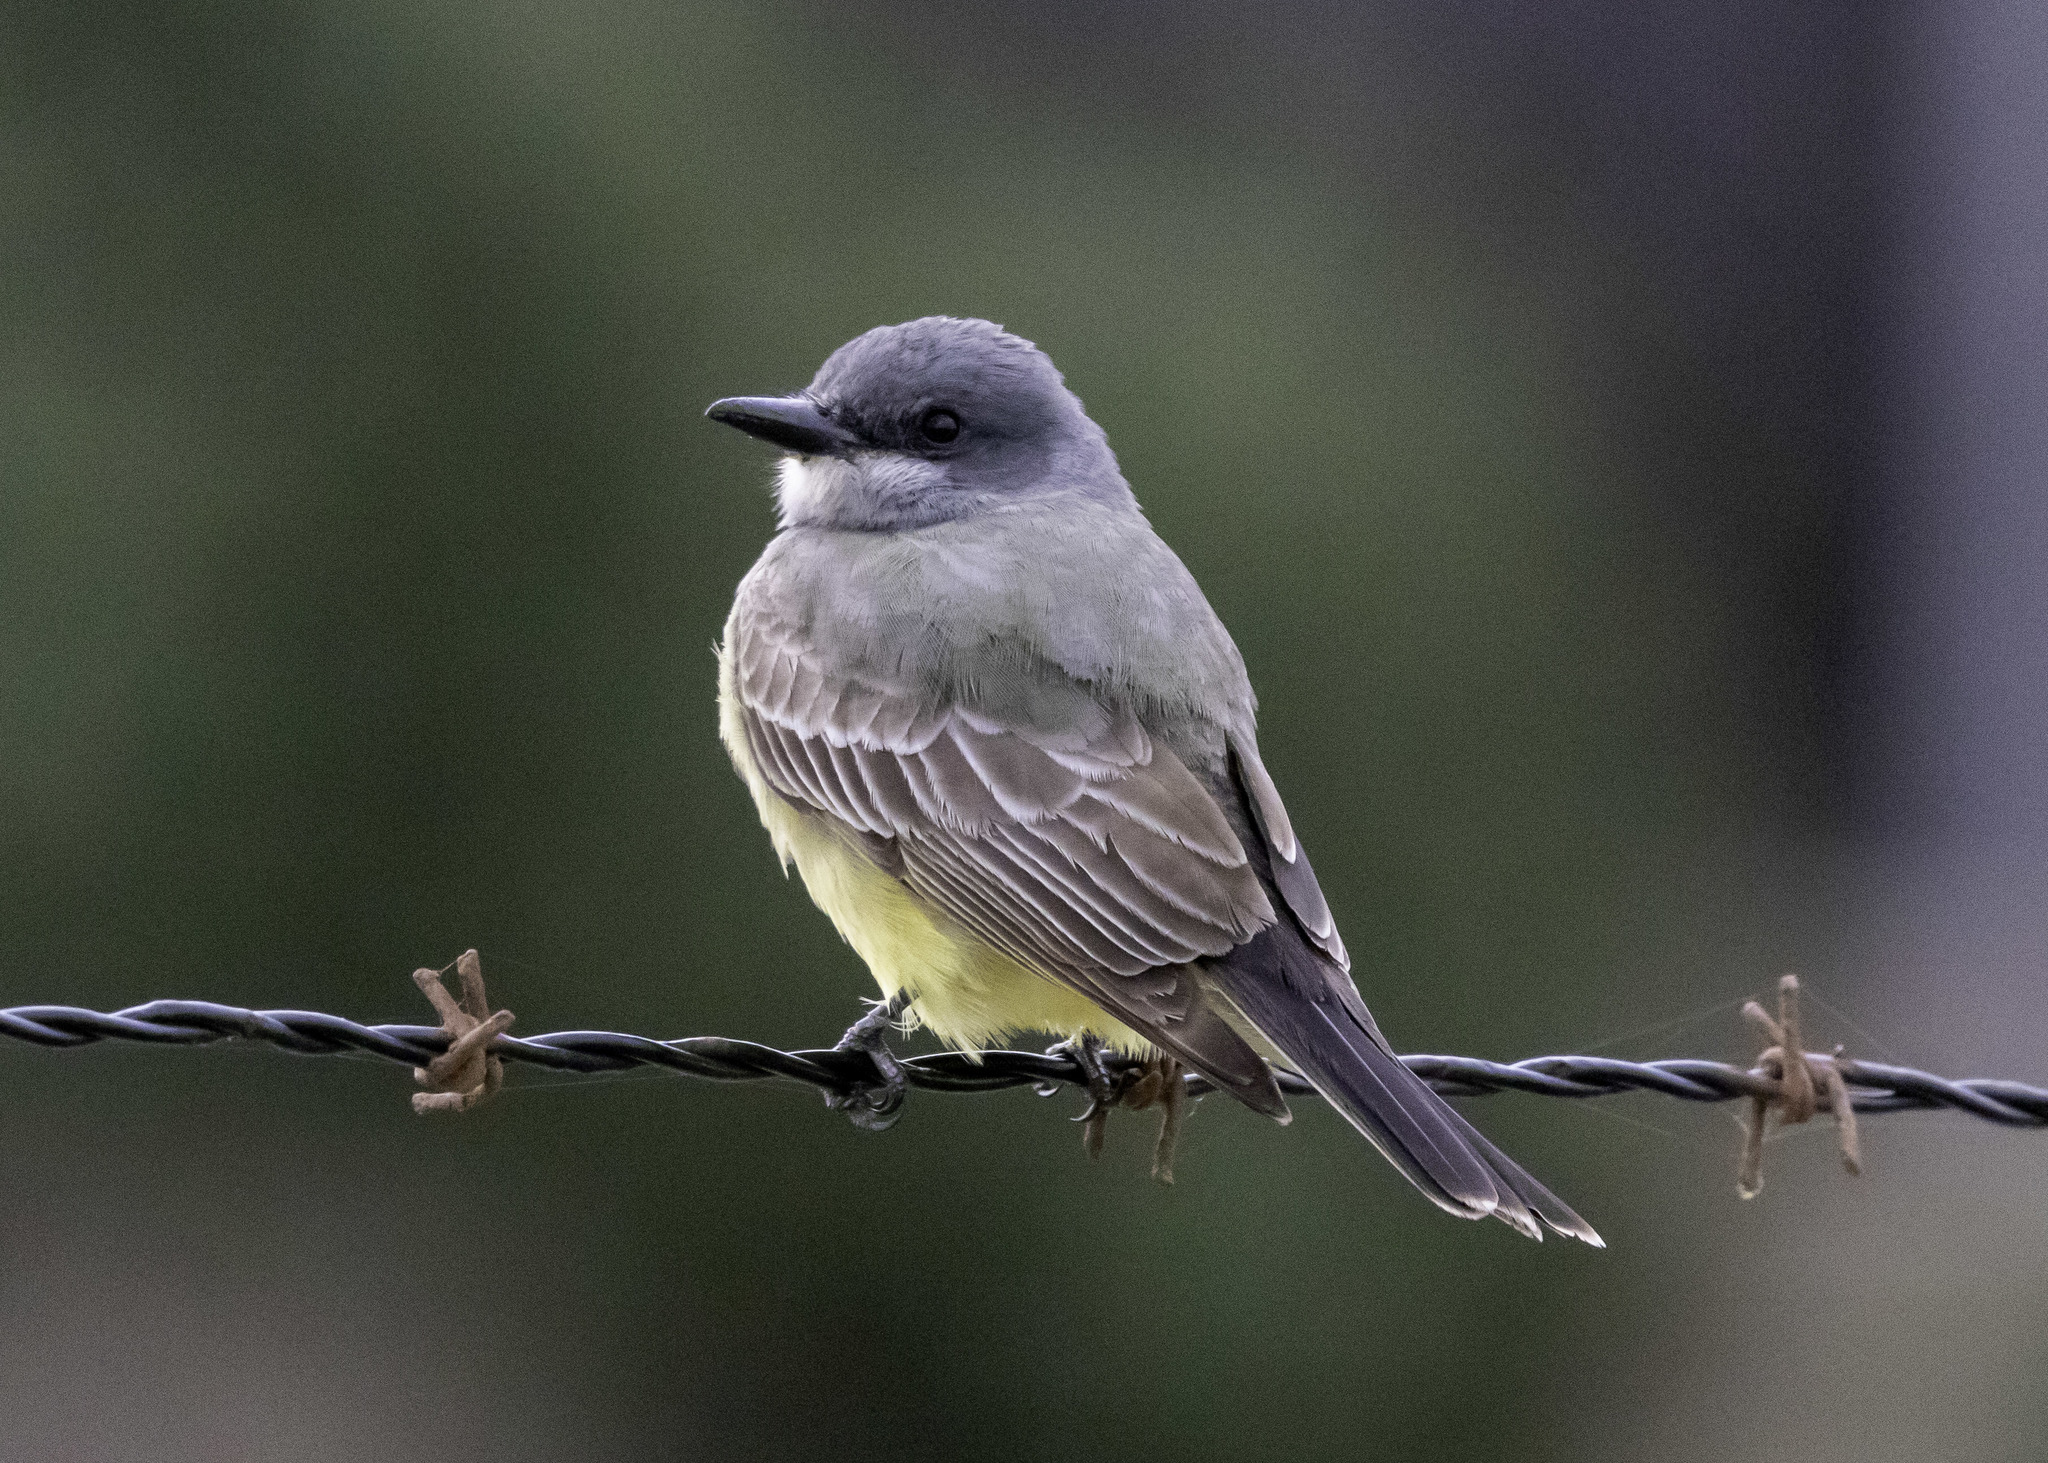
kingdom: Animalia
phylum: Chordata
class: Aves
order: Passeriformes
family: Tyrannidae
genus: Tyrannus
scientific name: Tyrannus vociferans
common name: Cassin's kingbird
